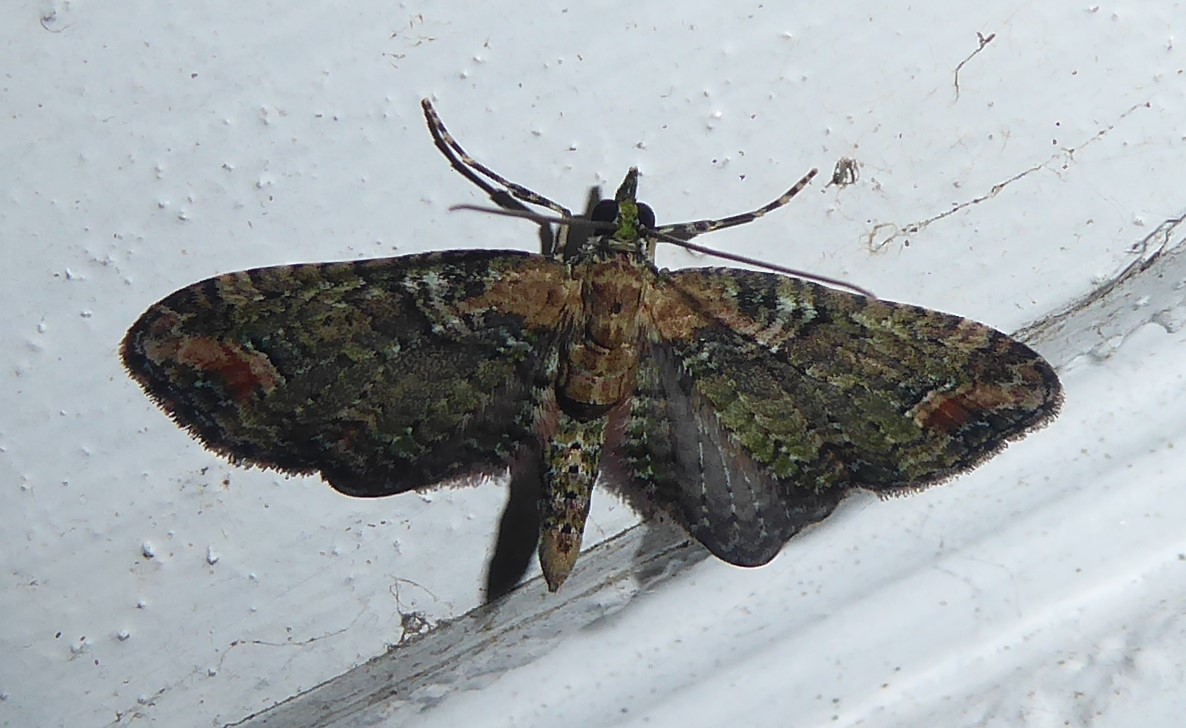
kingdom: Animalia
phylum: Arthropoda
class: Insecta
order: Lepidoptera
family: Geometridae
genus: Idaea
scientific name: Idaea mutanda
